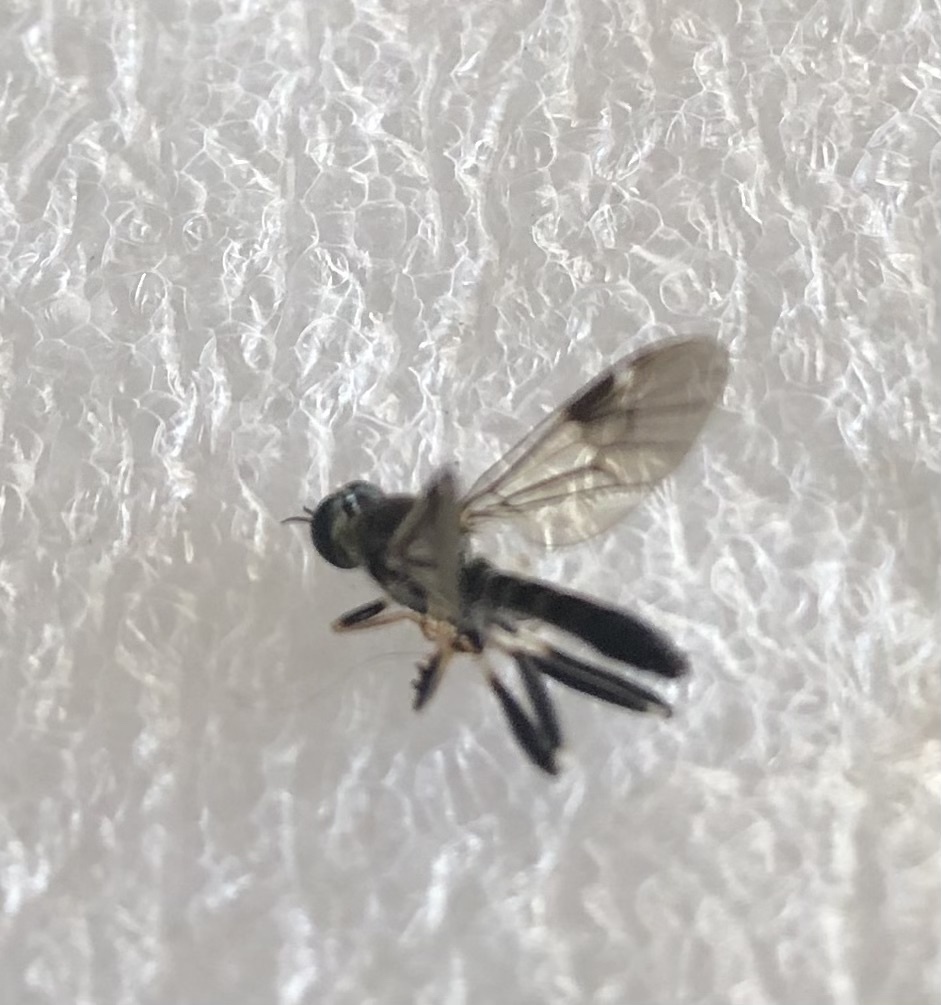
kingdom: Animalia
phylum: Arthropoda
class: Insecta
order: Diptera
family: Stratiomyidae
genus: Exaireta
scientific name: Exaireta spinigera
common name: Blue soldier fly
